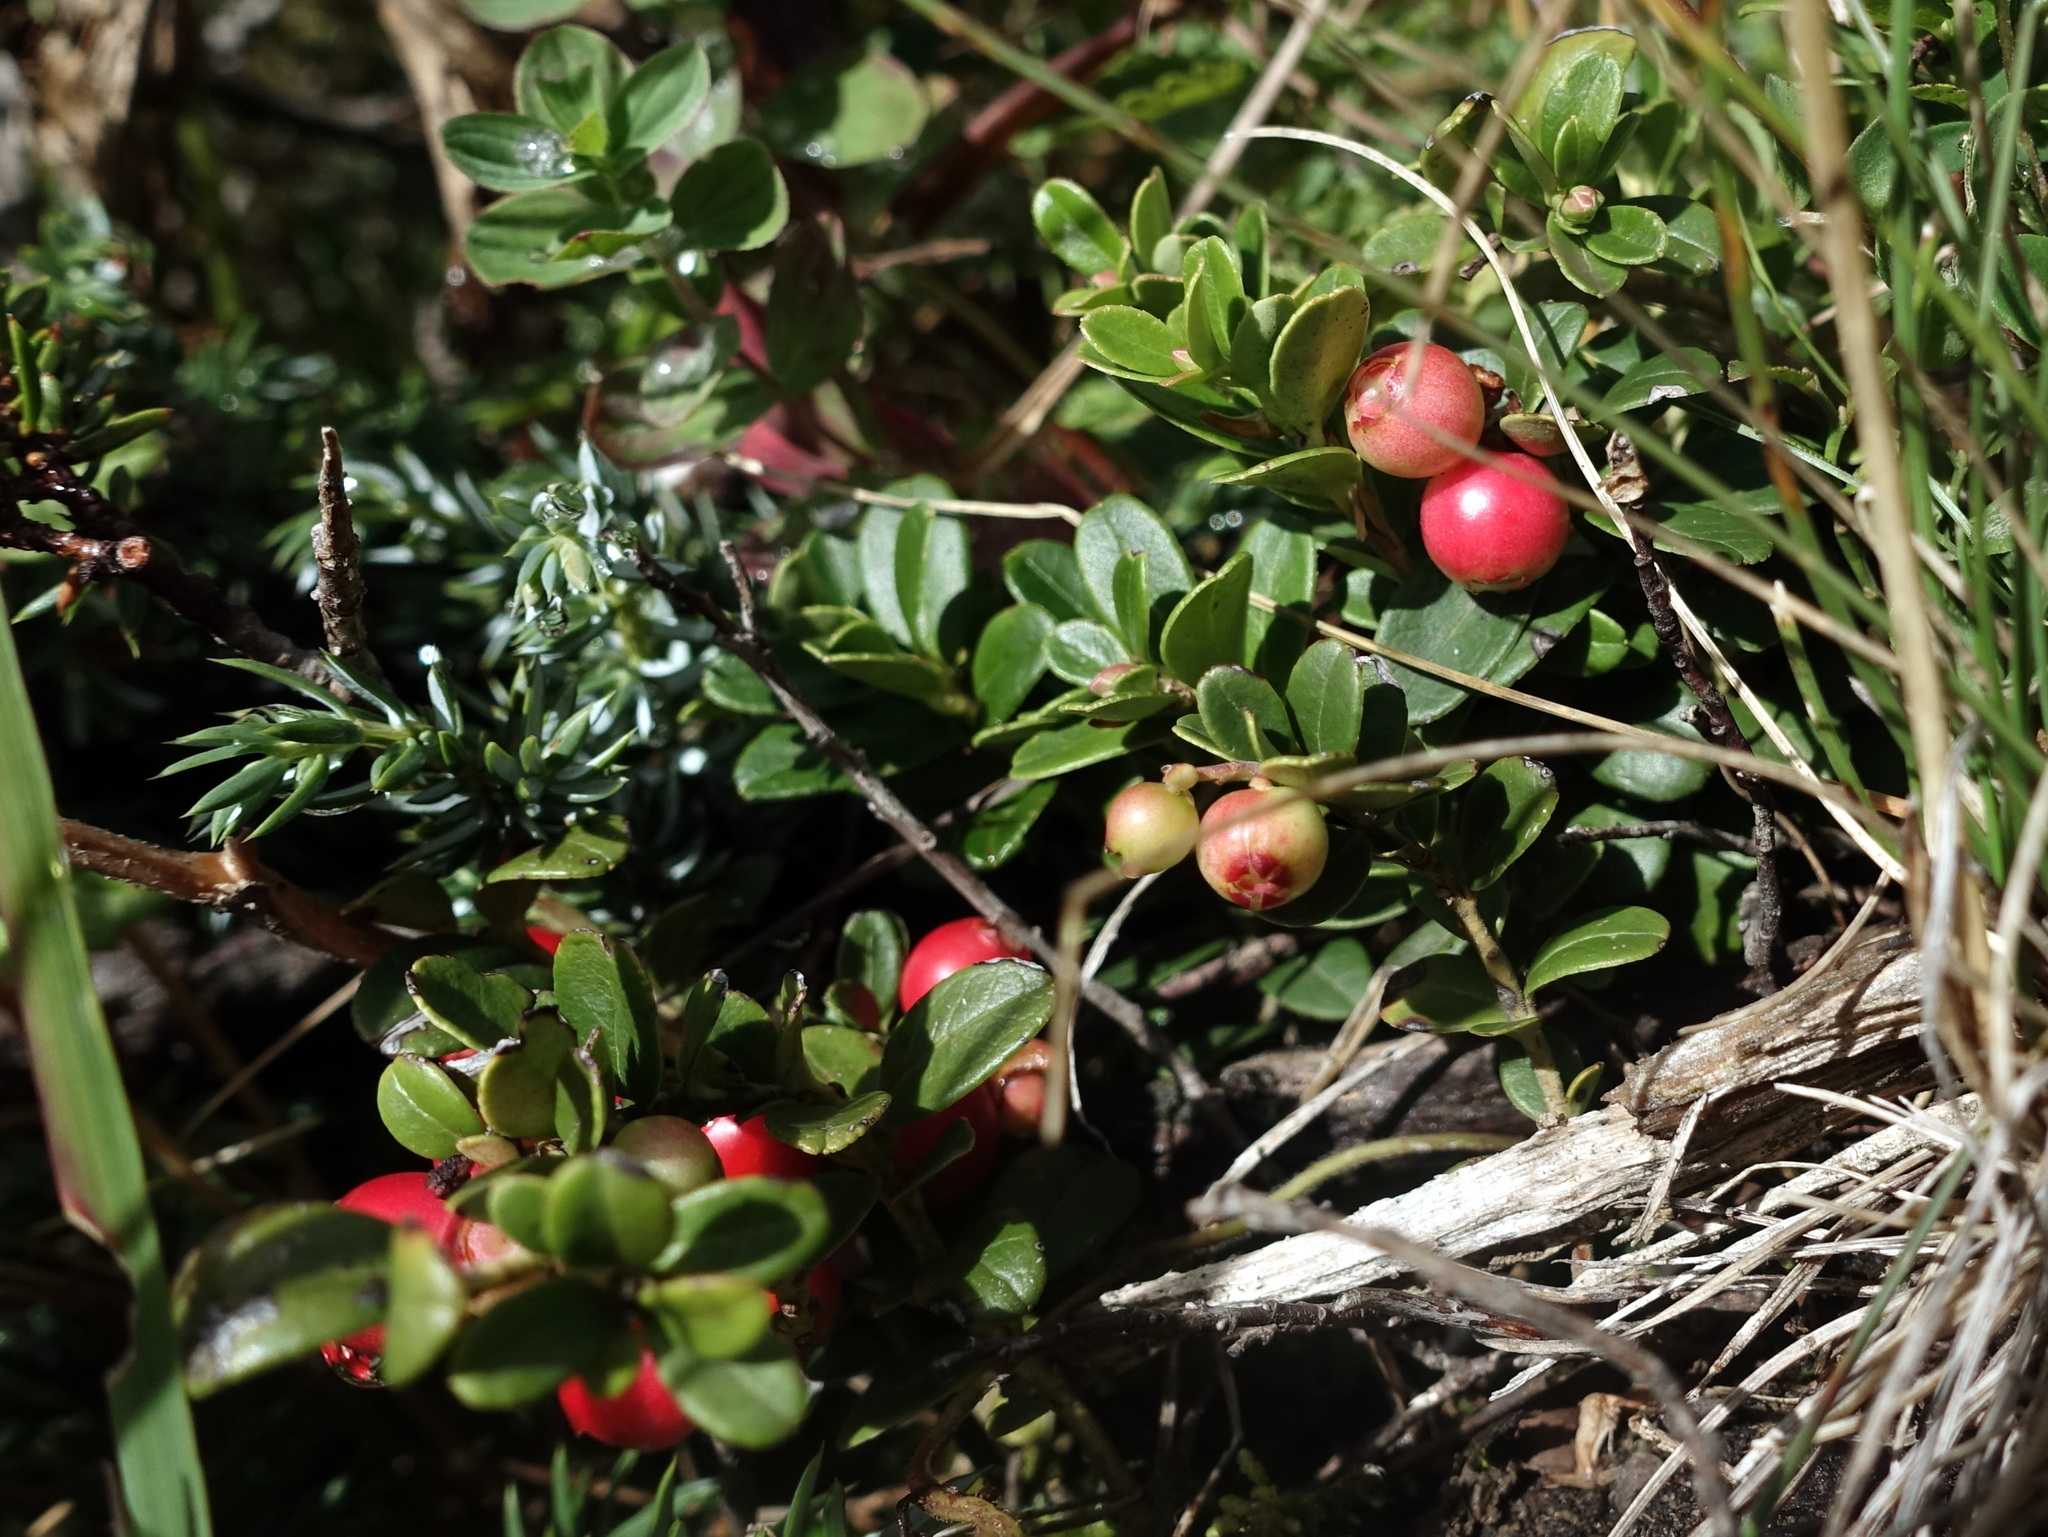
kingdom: Plantae
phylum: Tracheophyta
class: Magnoliopsida
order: Ericales
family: Ericaceae
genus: Vaccinium
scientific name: Vaccinium vitis-idaea
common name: Cowberry
